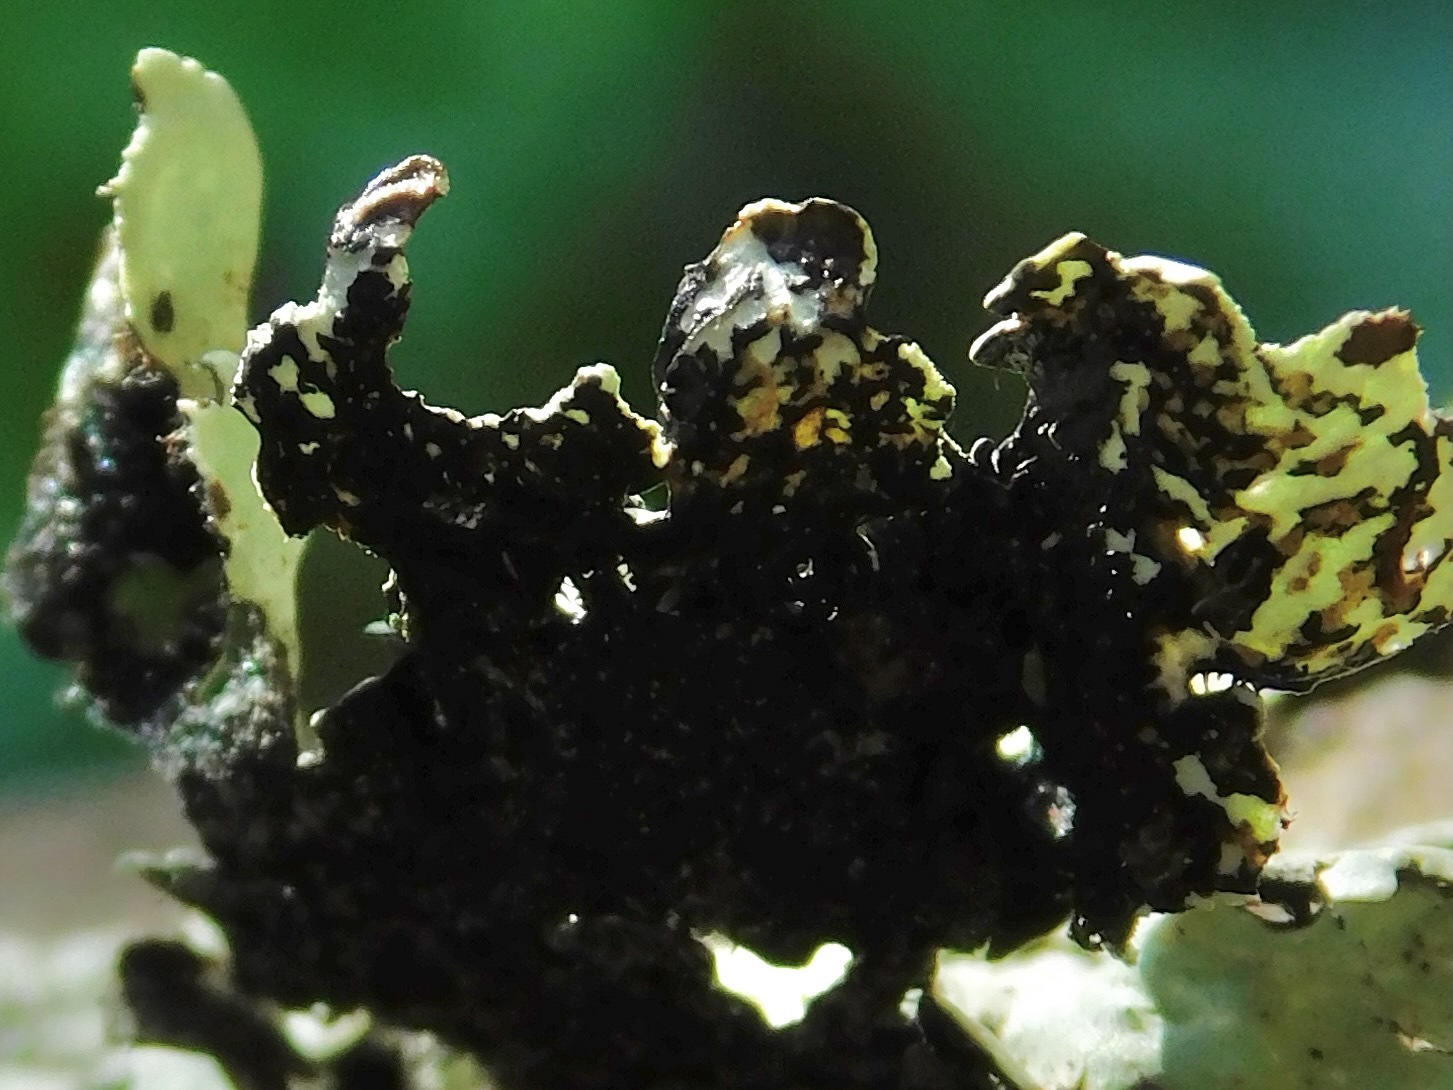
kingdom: Fungi
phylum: Ascomycota
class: Lecanoromycetes
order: Lecanorales
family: Parmeliaceae
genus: Punctelia
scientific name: Punctelia appalachensis
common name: Appalaches appalachian speckled shield lichen
